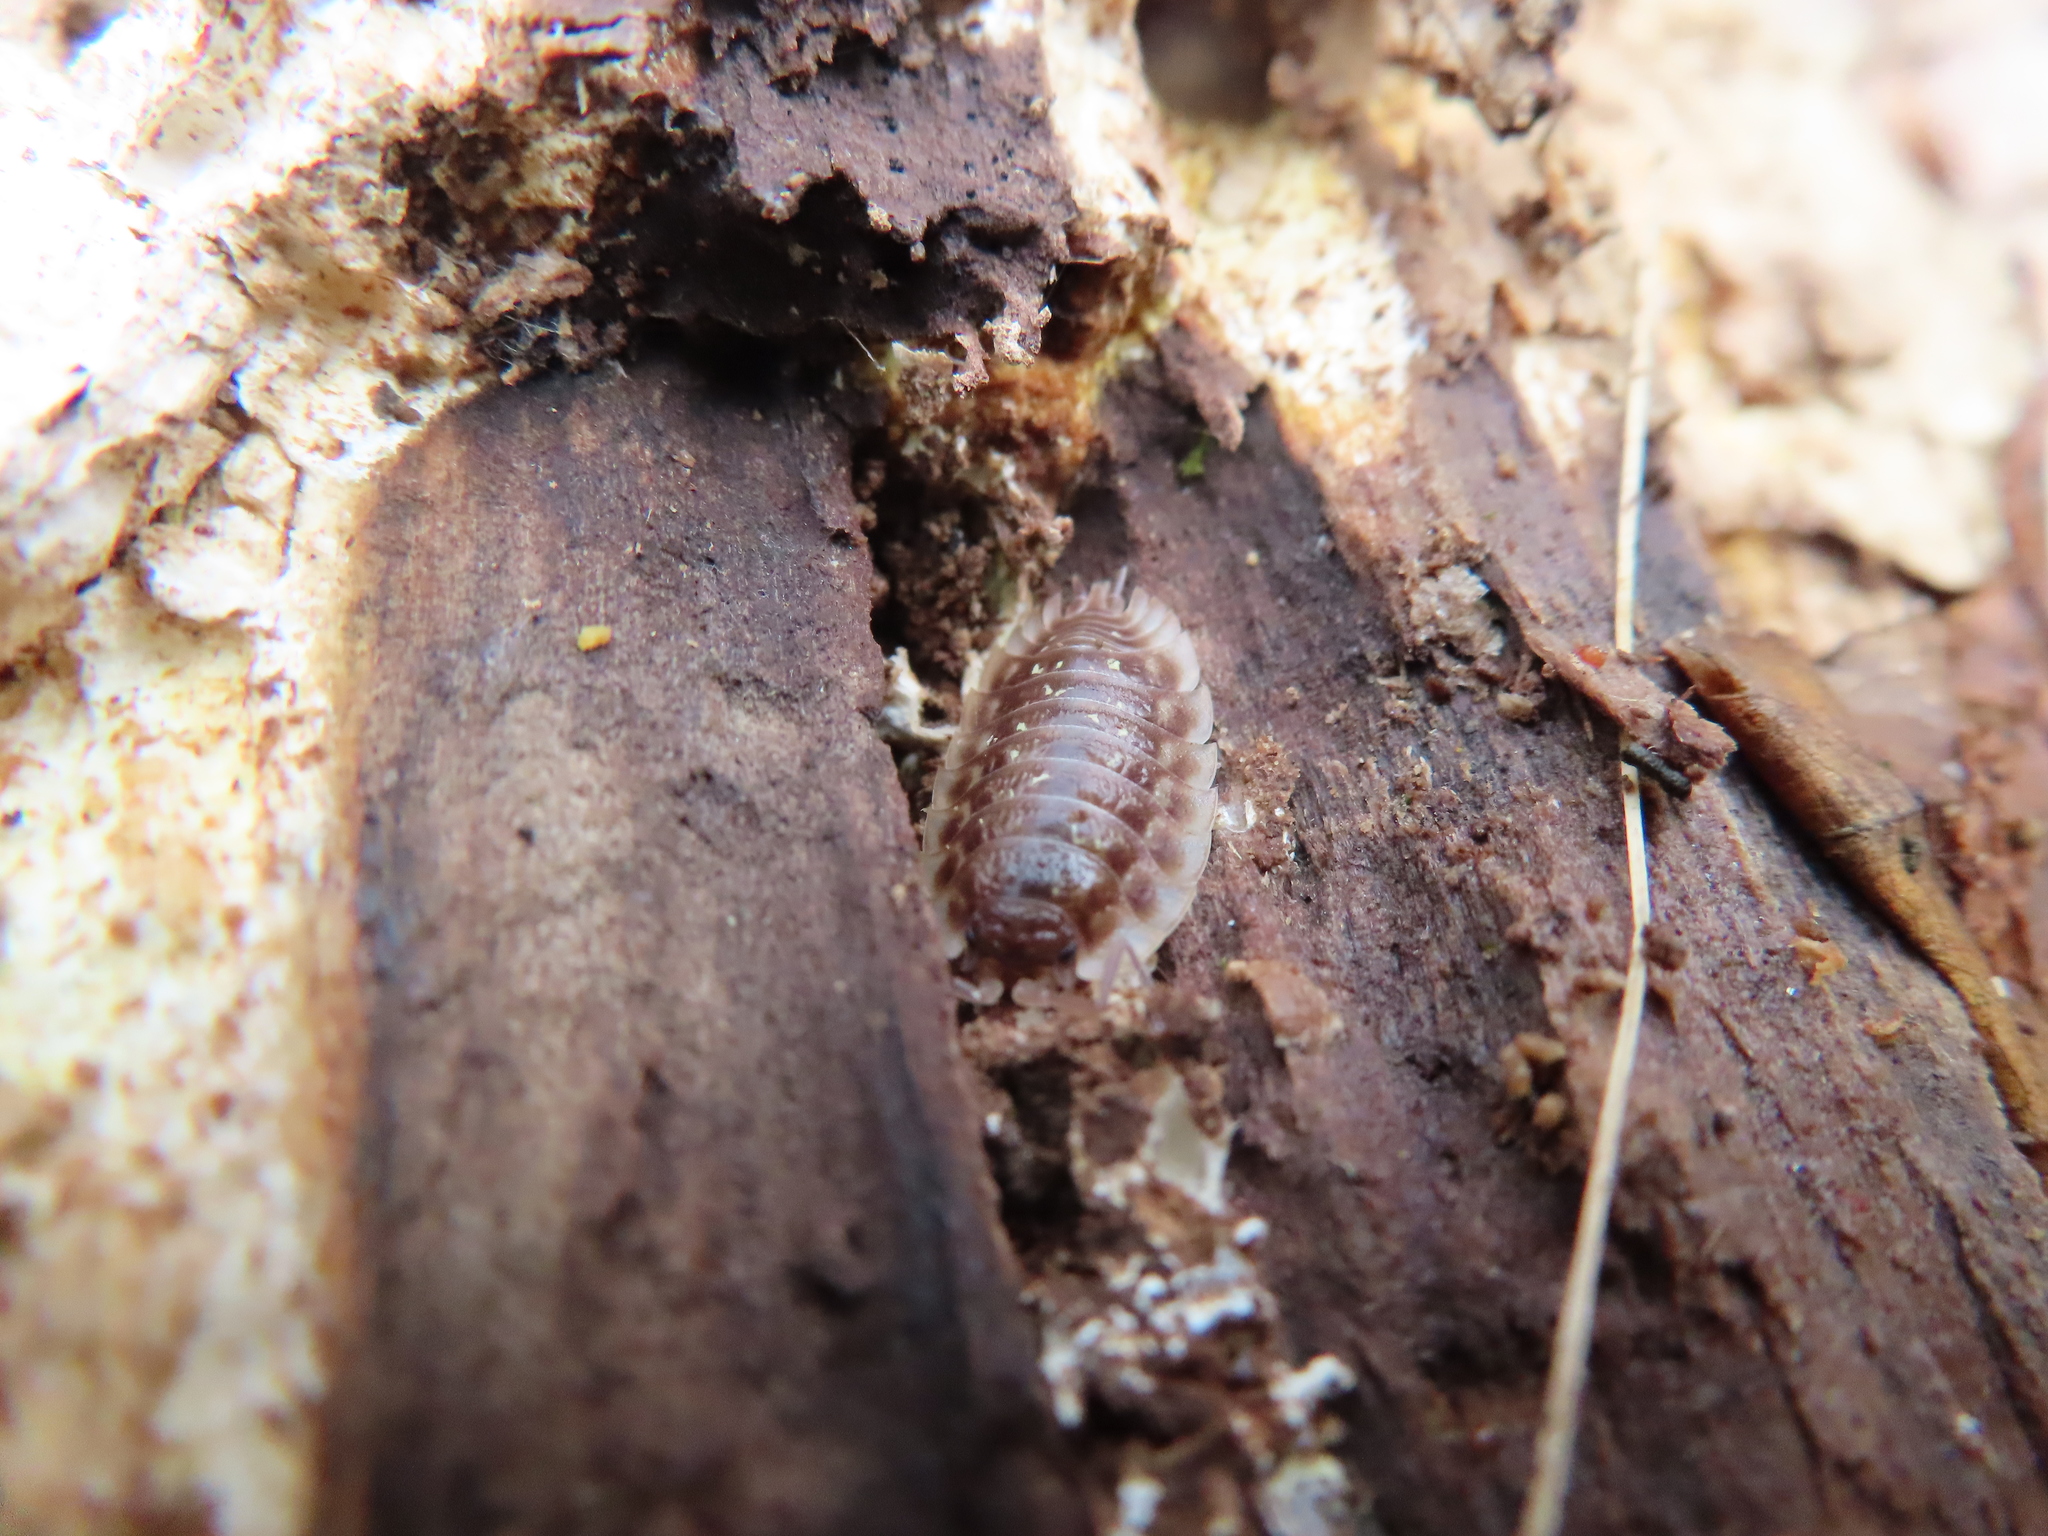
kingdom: Animalia
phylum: Arthropoda
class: Malacostraca
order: Isopoda
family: Oniscidae
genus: Oniscus
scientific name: Oniscus asellus
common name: Common shiny woodlouse
